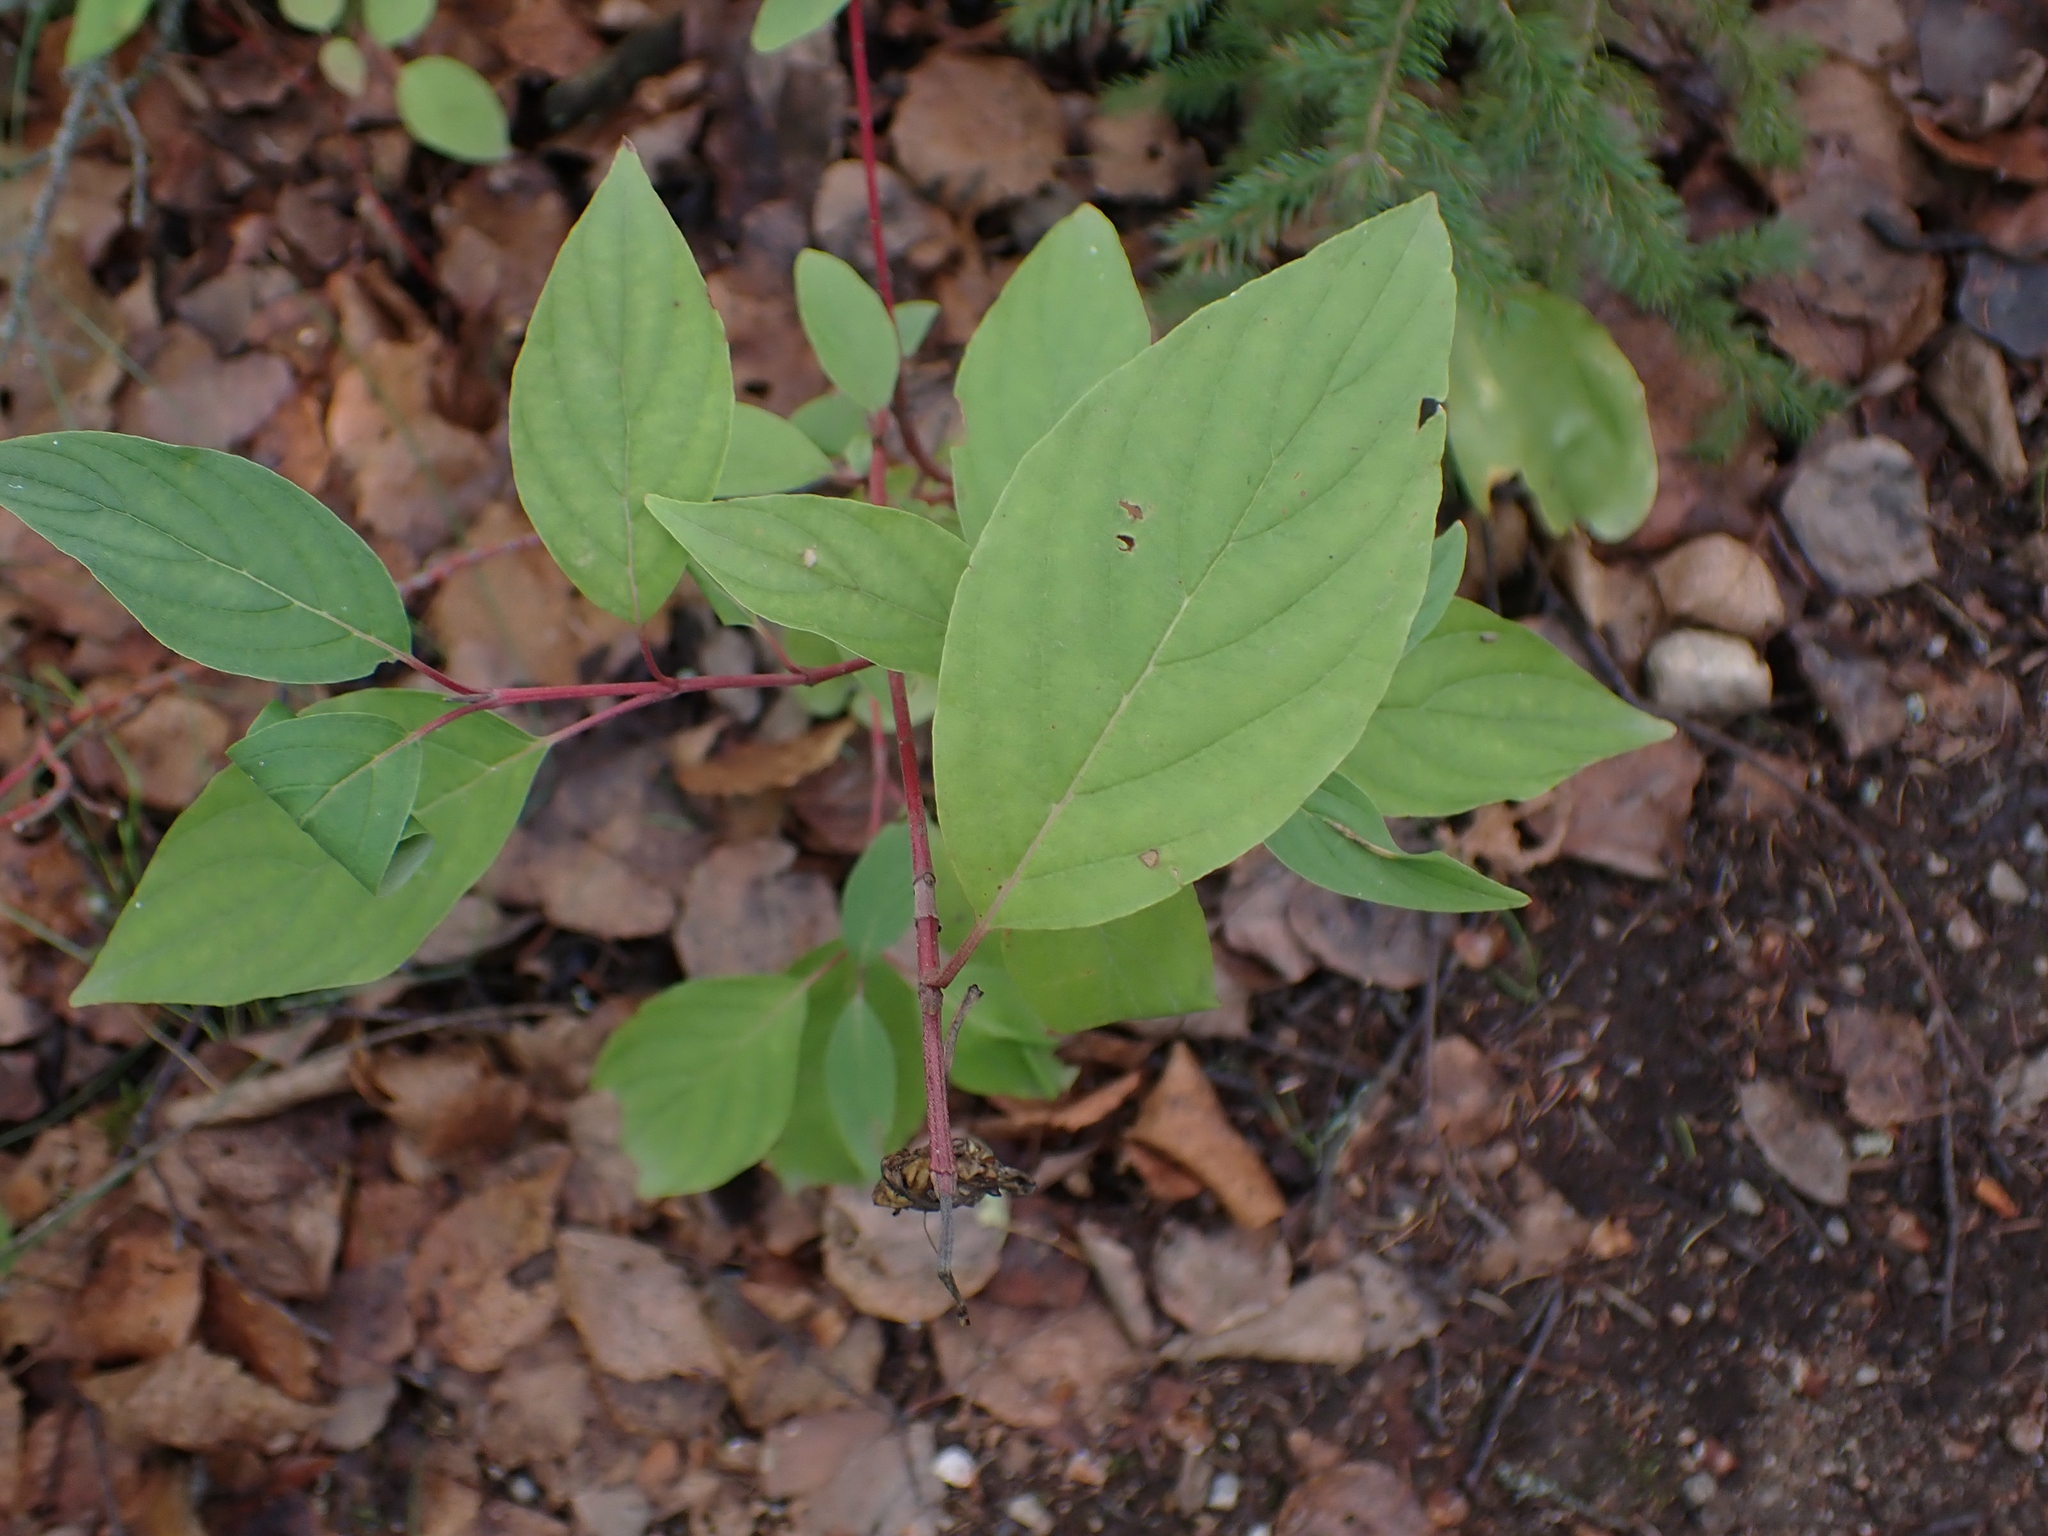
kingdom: Plantae
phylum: Tracheophyta
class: Magnoliopsida
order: Cornales
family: Cornaceae
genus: Cornus
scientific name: Cornus sericea
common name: Red-osier dogwood
